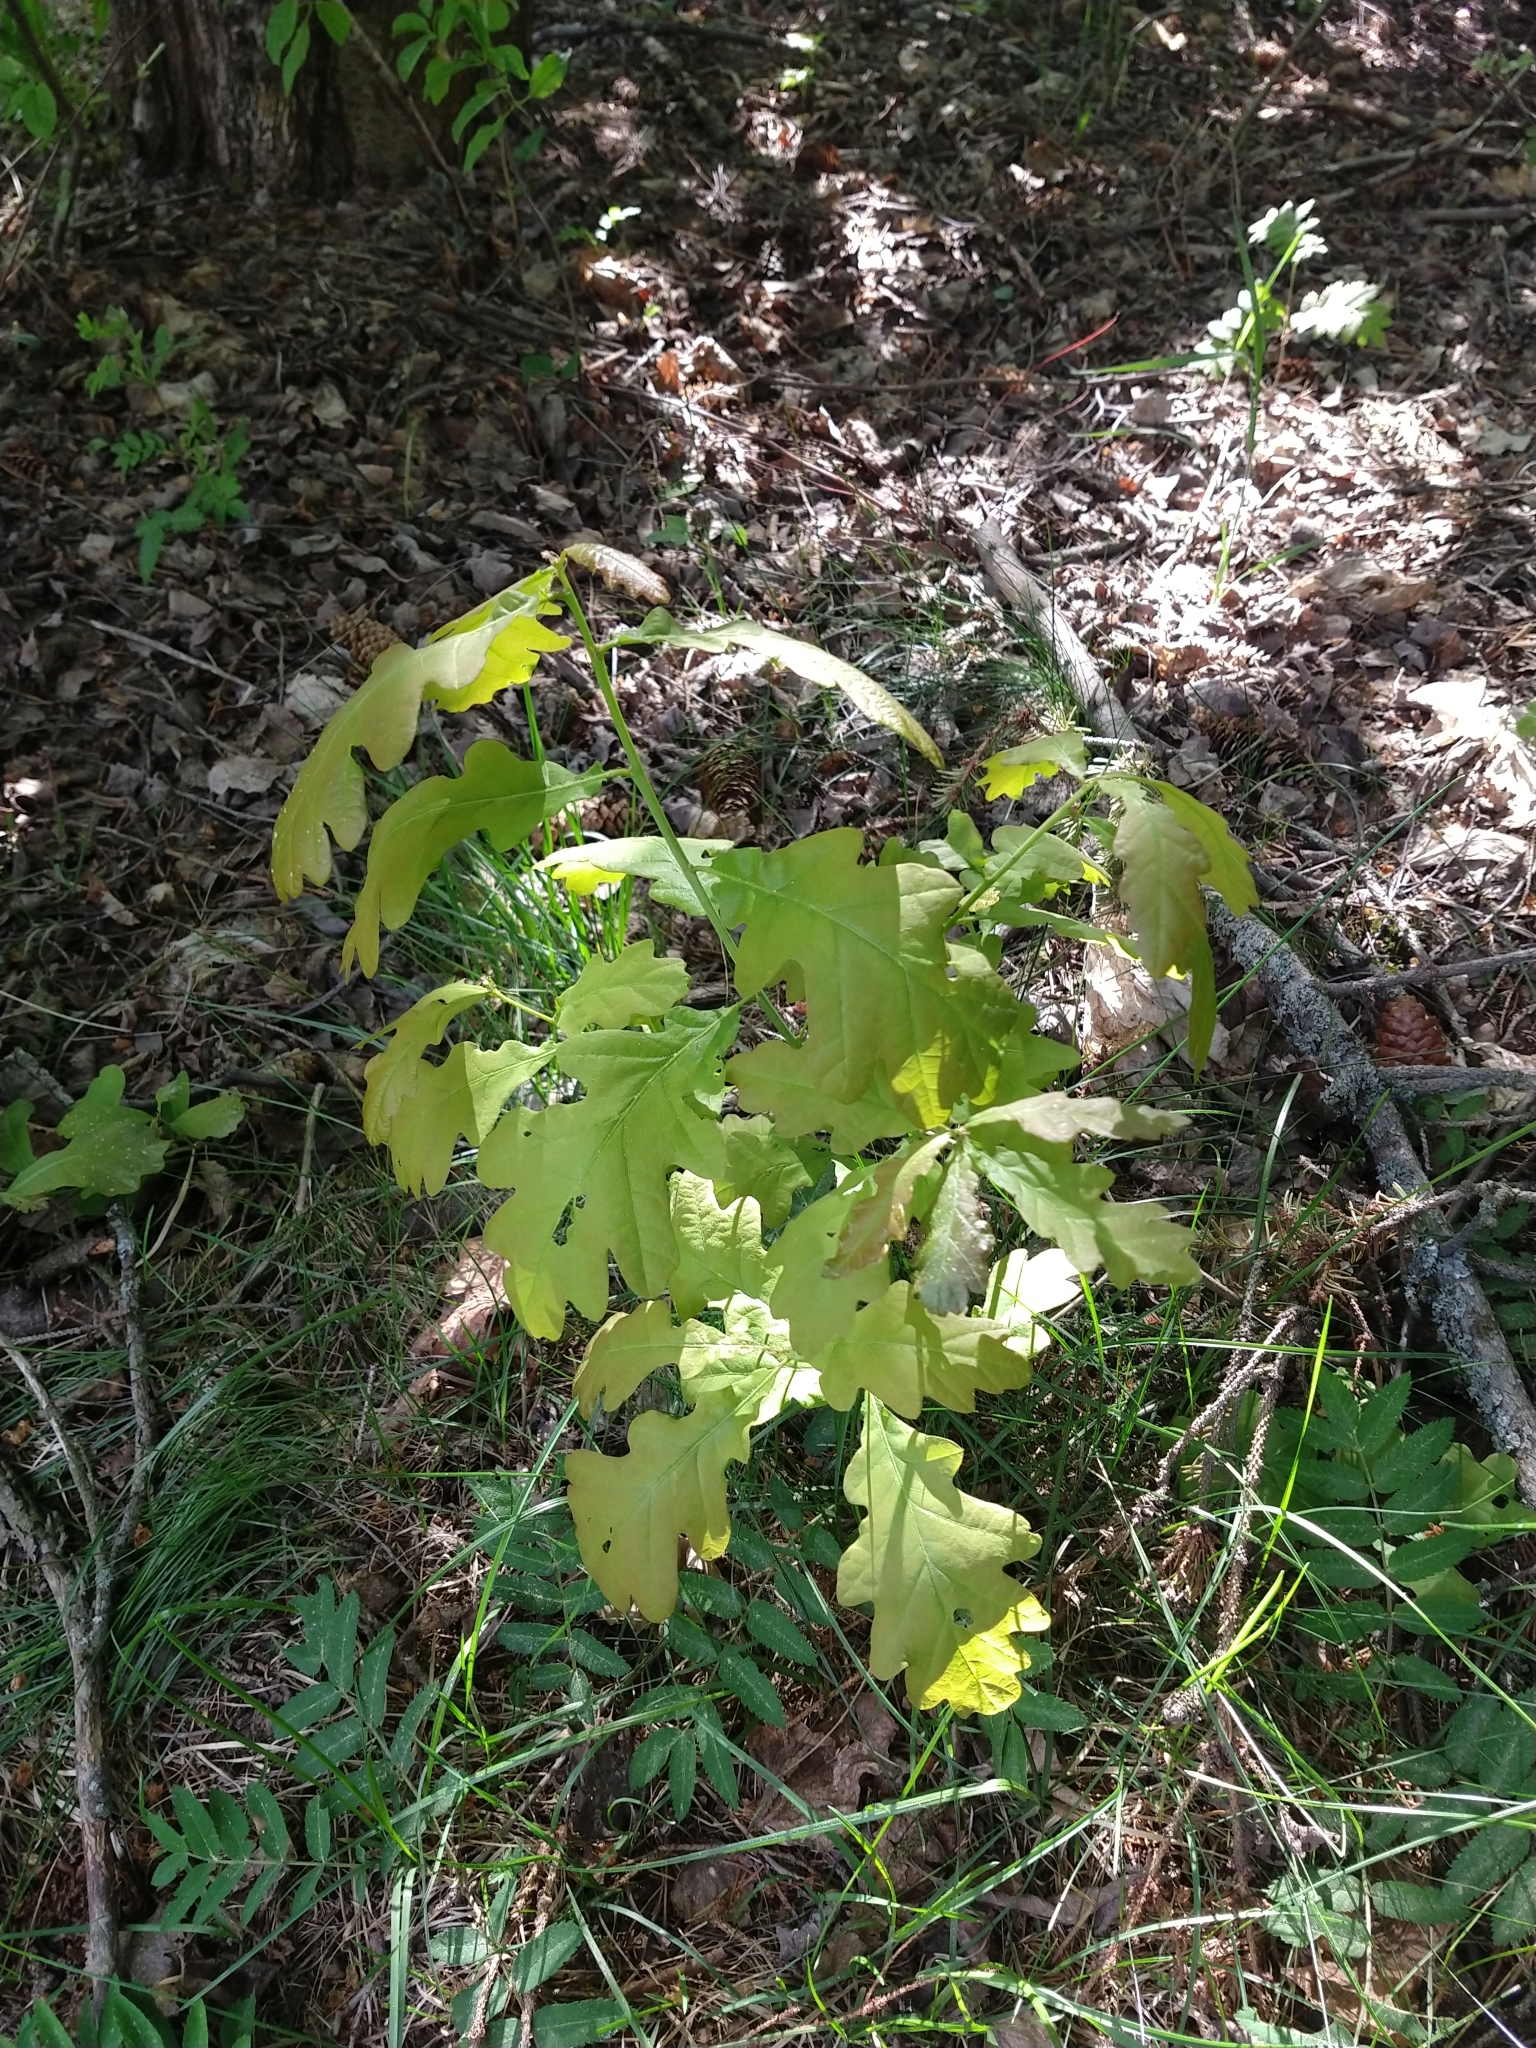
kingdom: Plantae
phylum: Tracheophyta
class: Magnoliopsida
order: Fagales
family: Fagaceae
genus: Quercus
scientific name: Quercus robur
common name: Pedunculate oak
